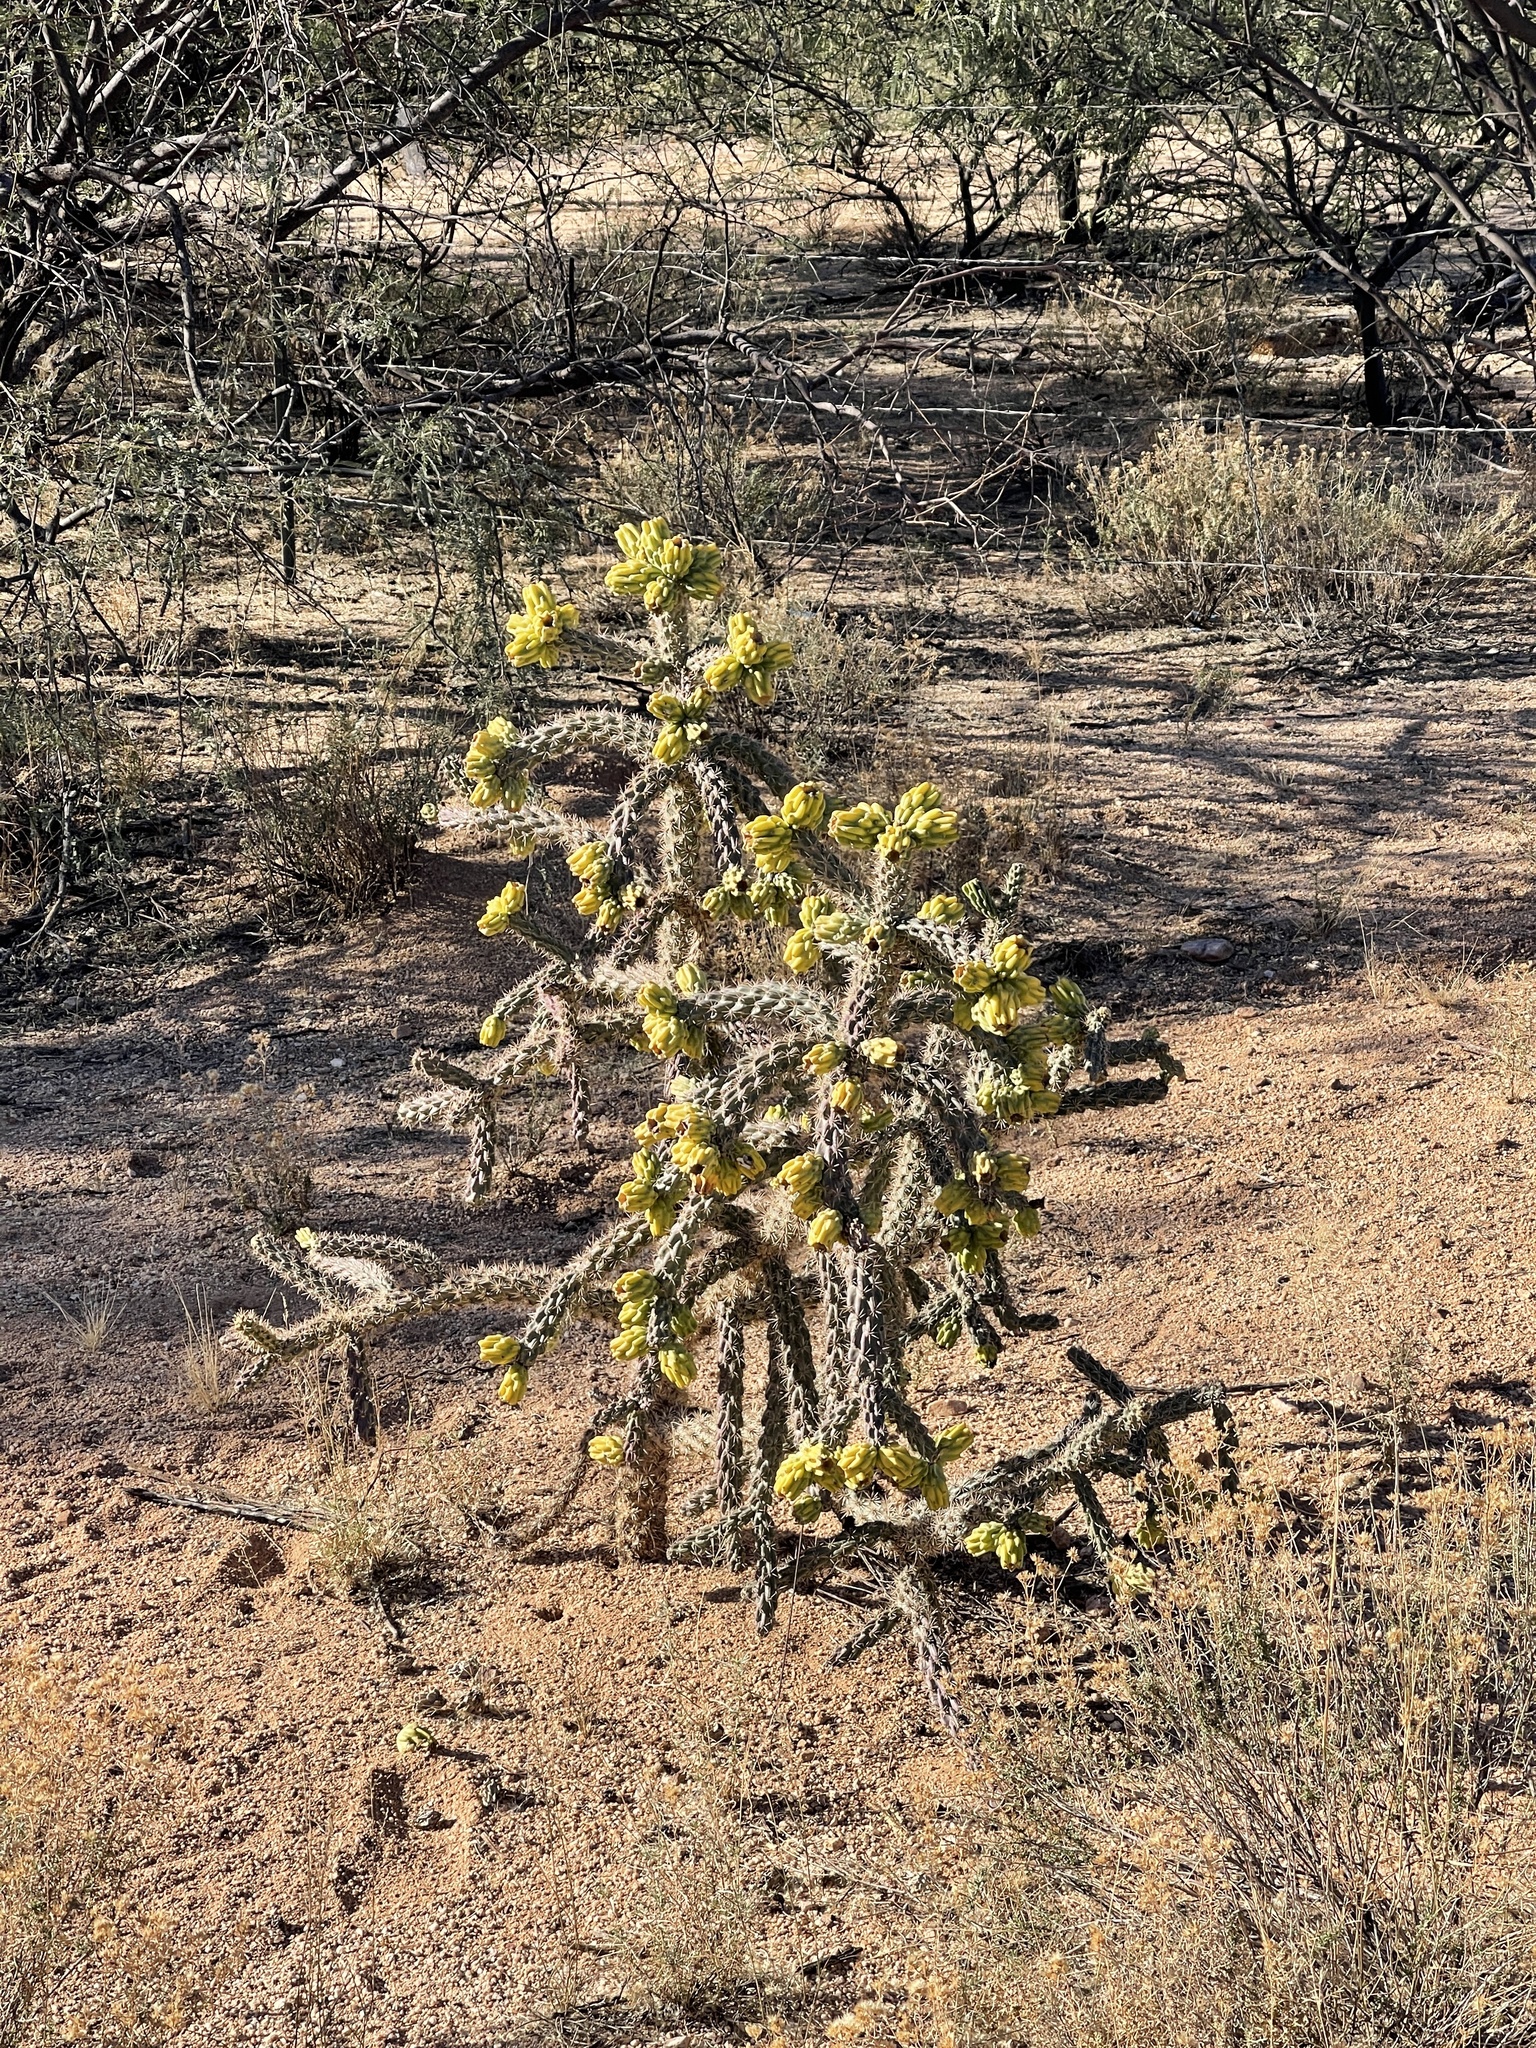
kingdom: Plantae
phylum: Tracheophyta
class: Magnoliopsida
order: Caryophyllales
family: Cactaceae
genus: Cylindropuntia
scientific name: Cylindropuntia imbricata
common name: Candelabrum cactus
